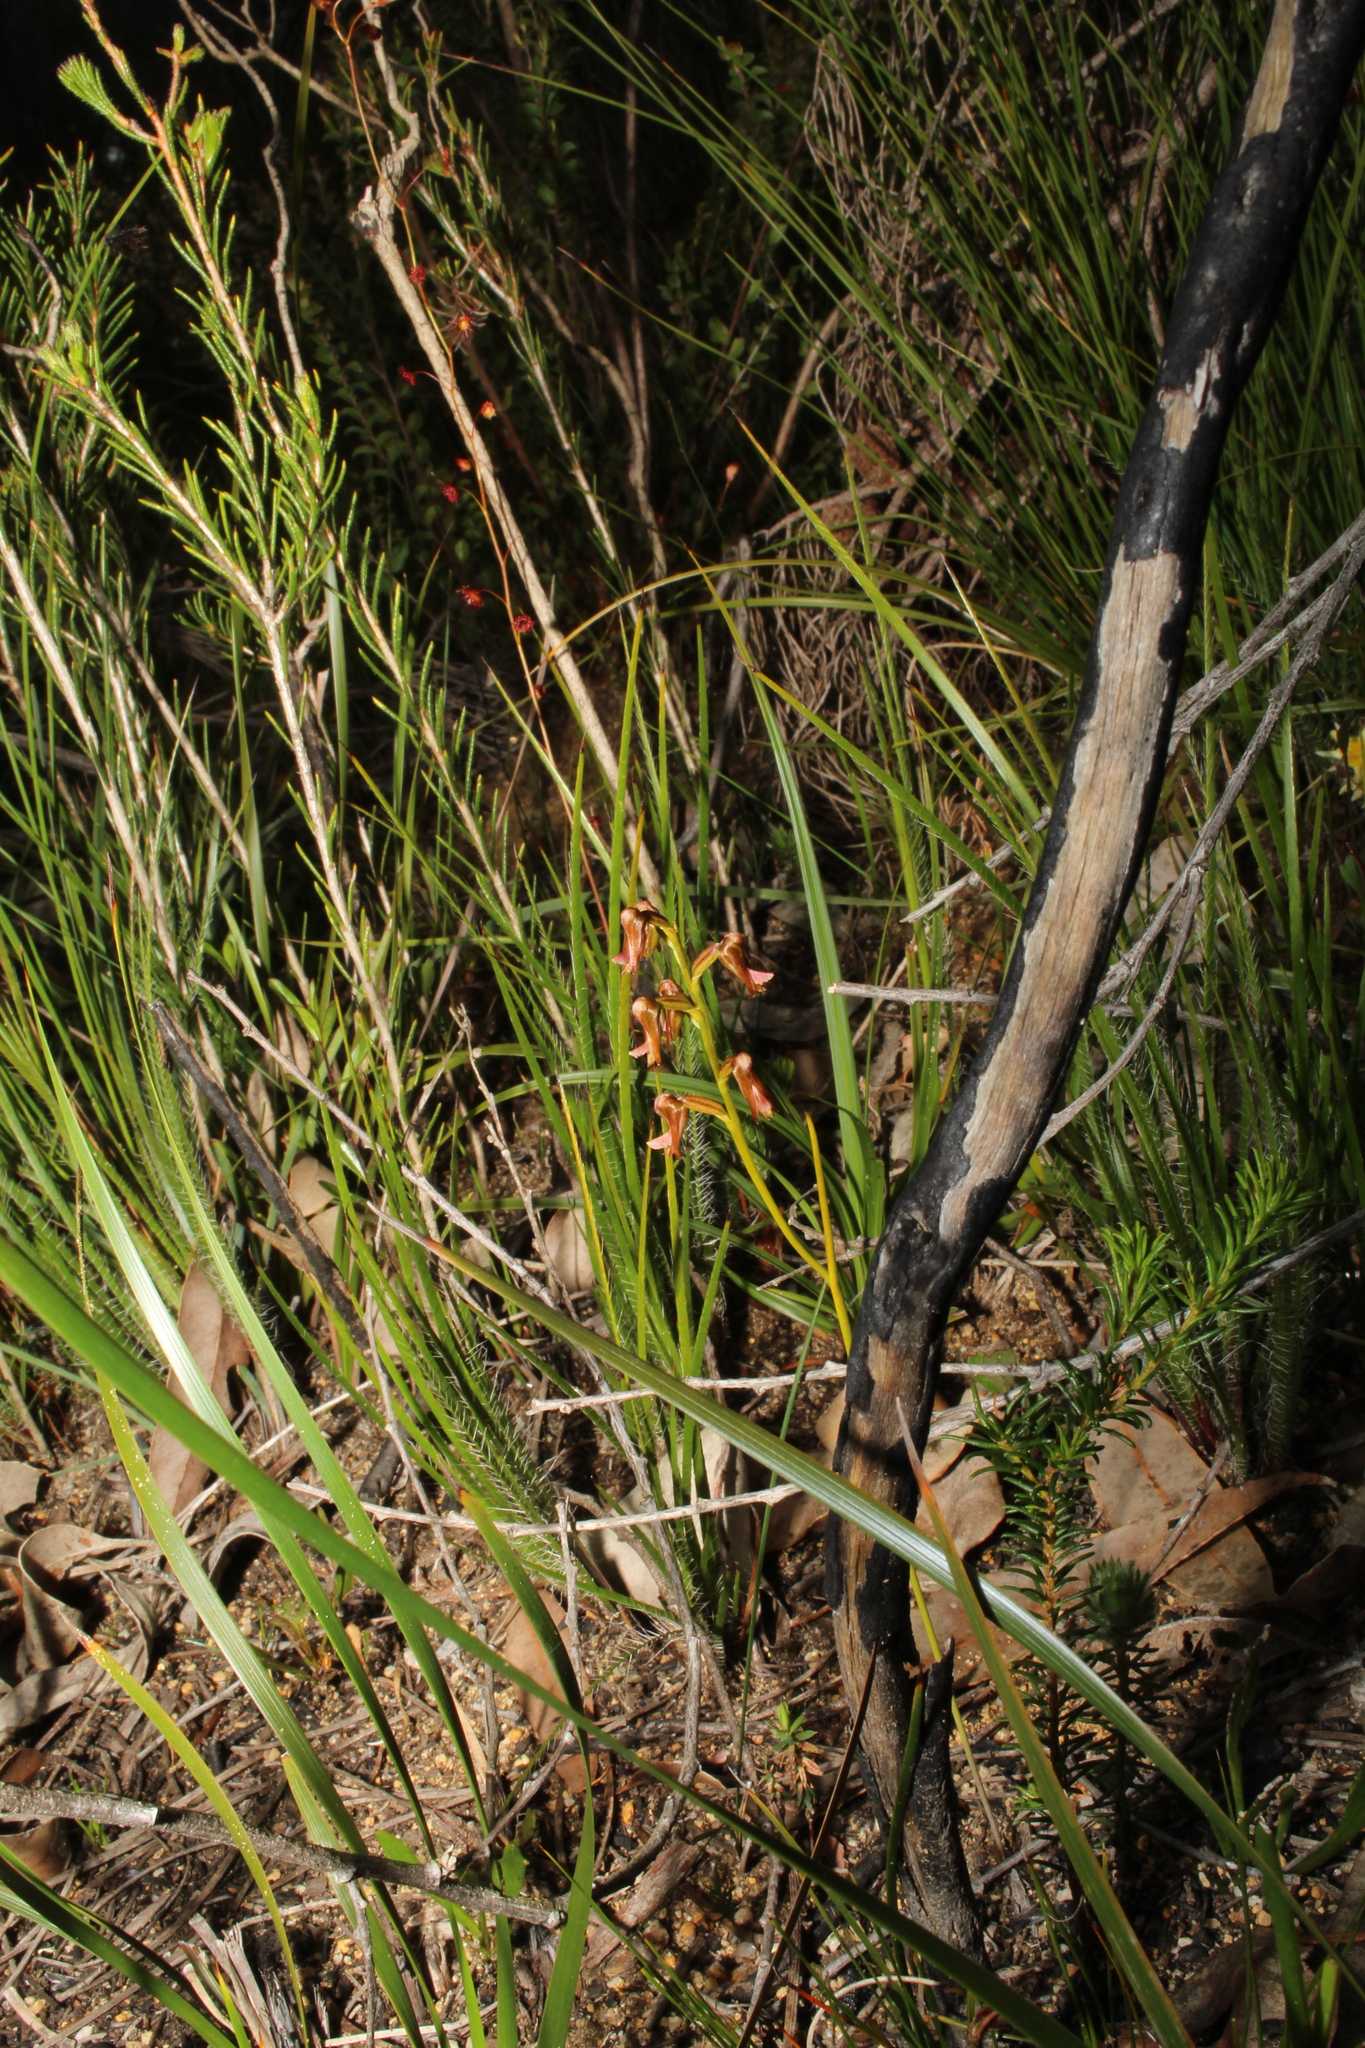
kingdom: Plantae
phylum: Tracheophyta
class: Liliopsida
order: Asparagales
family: Orchidaceae
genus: Prasophyllum
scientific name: Prasophyllum parvifolium
